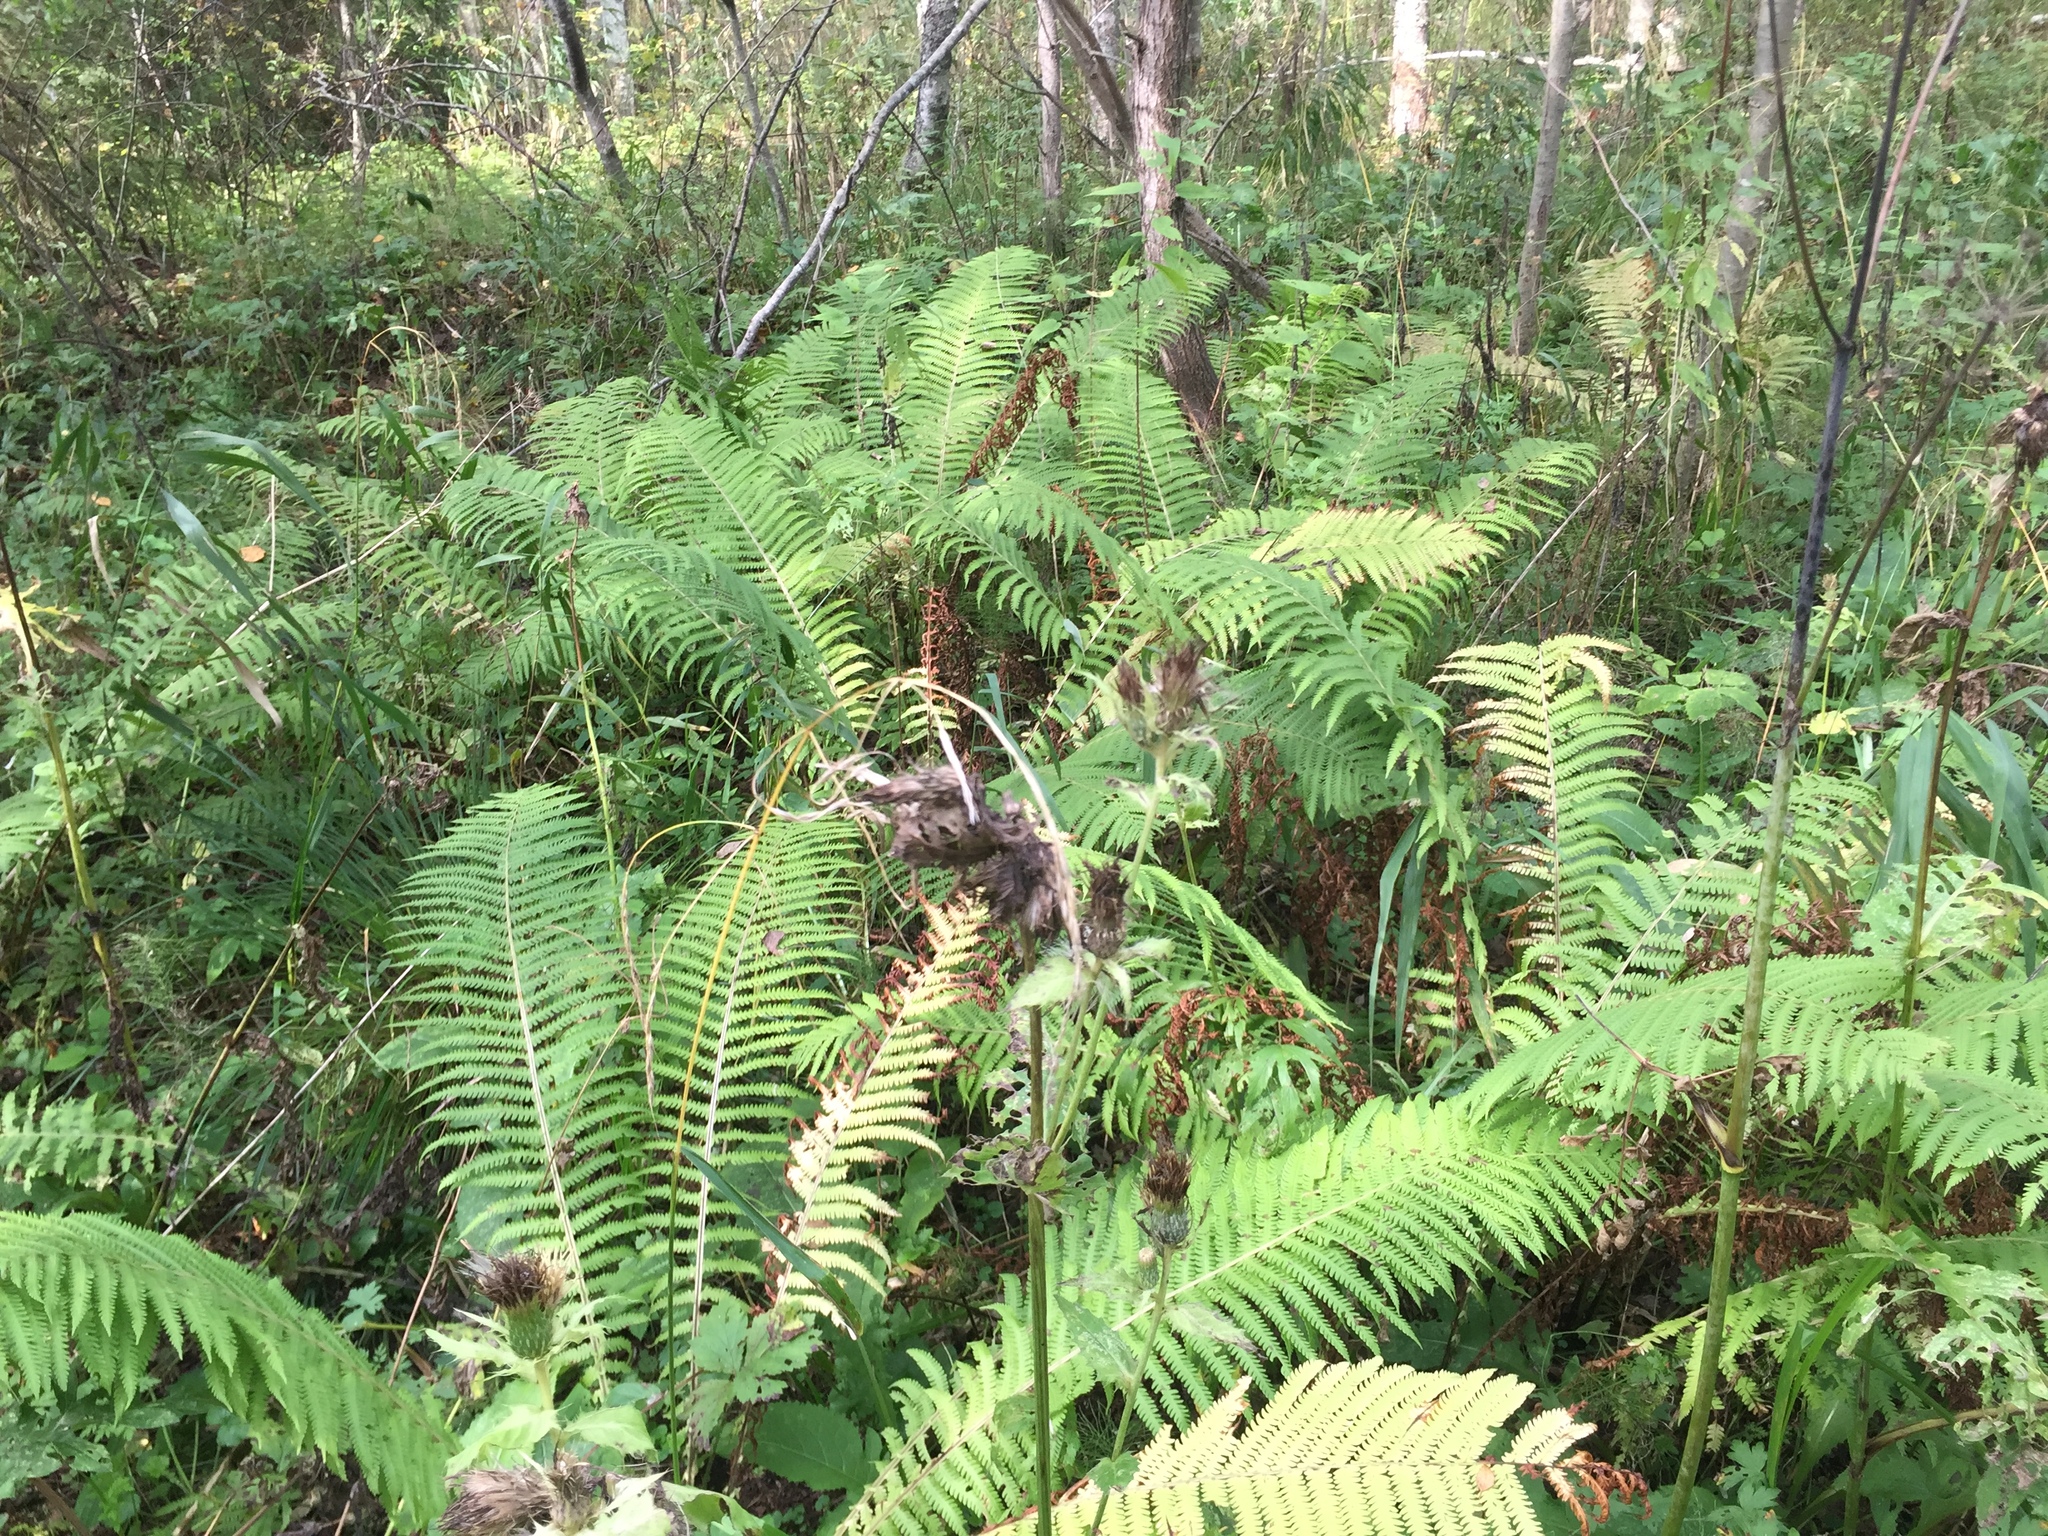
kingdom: Plantae
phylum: Tracheophyta
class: Polypodiopsida
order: Polypodiales
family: Onocleaceae
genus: Matteuccia
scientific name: Matteuccia struthiopteris
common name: Ostrich fern
